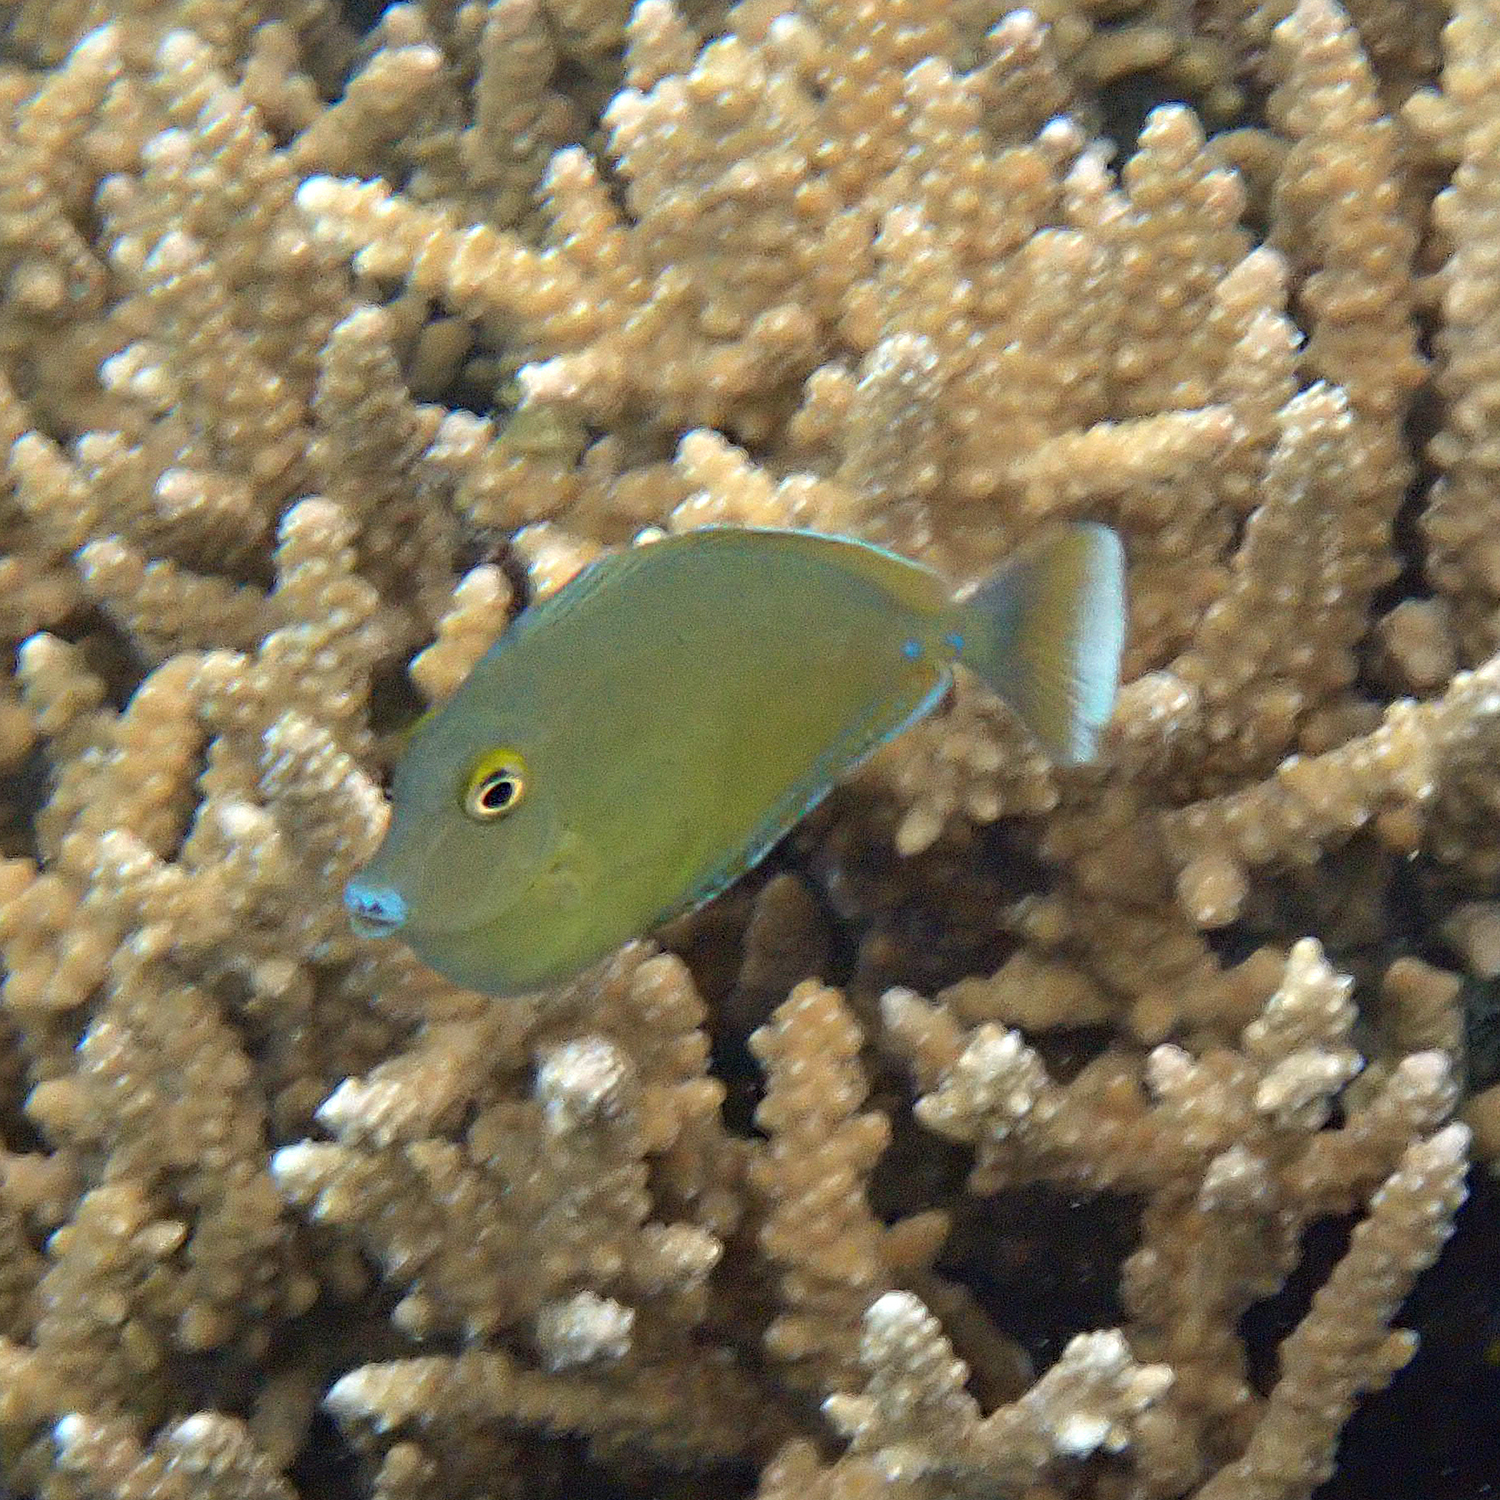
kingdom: Animalia
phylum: Chordata
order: Perciformes
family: Acanthuridae
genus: Naso
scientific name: Naso unicornis
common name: Bluespine unicornfish
